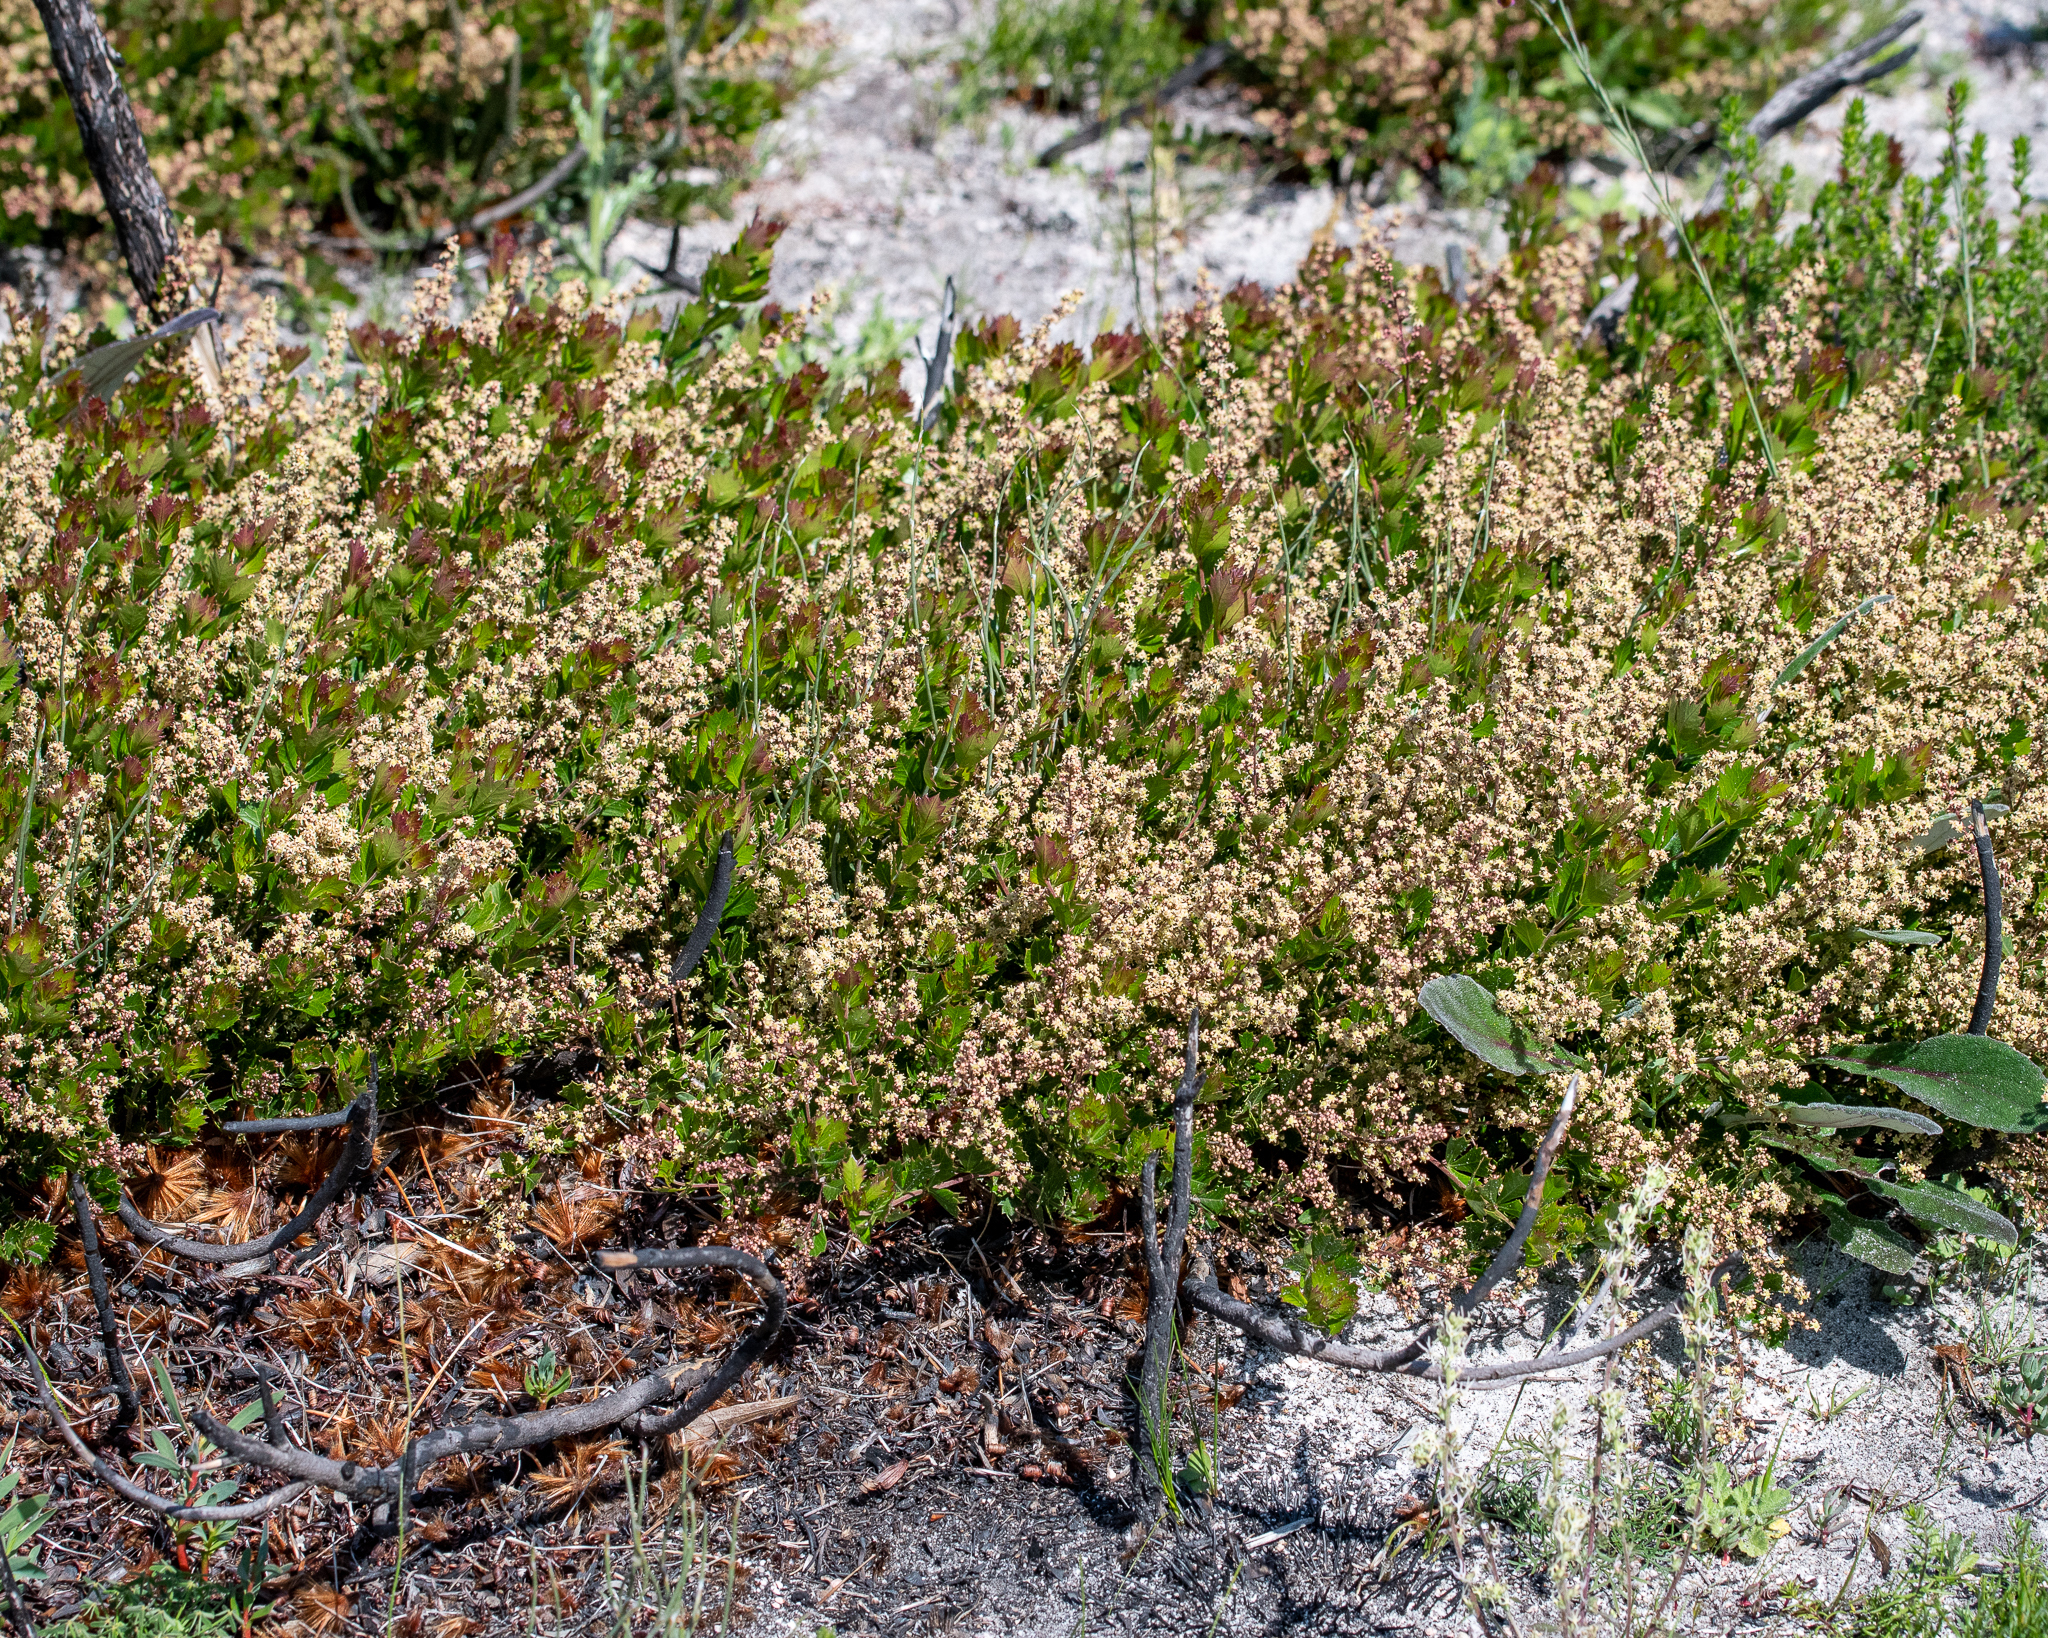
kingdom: Plantae
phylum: Tracheophyta
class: Magnoliopsida
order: Sapindales
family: Anacardiaceae
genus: Searsia
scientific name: Searsia cuneifolia
